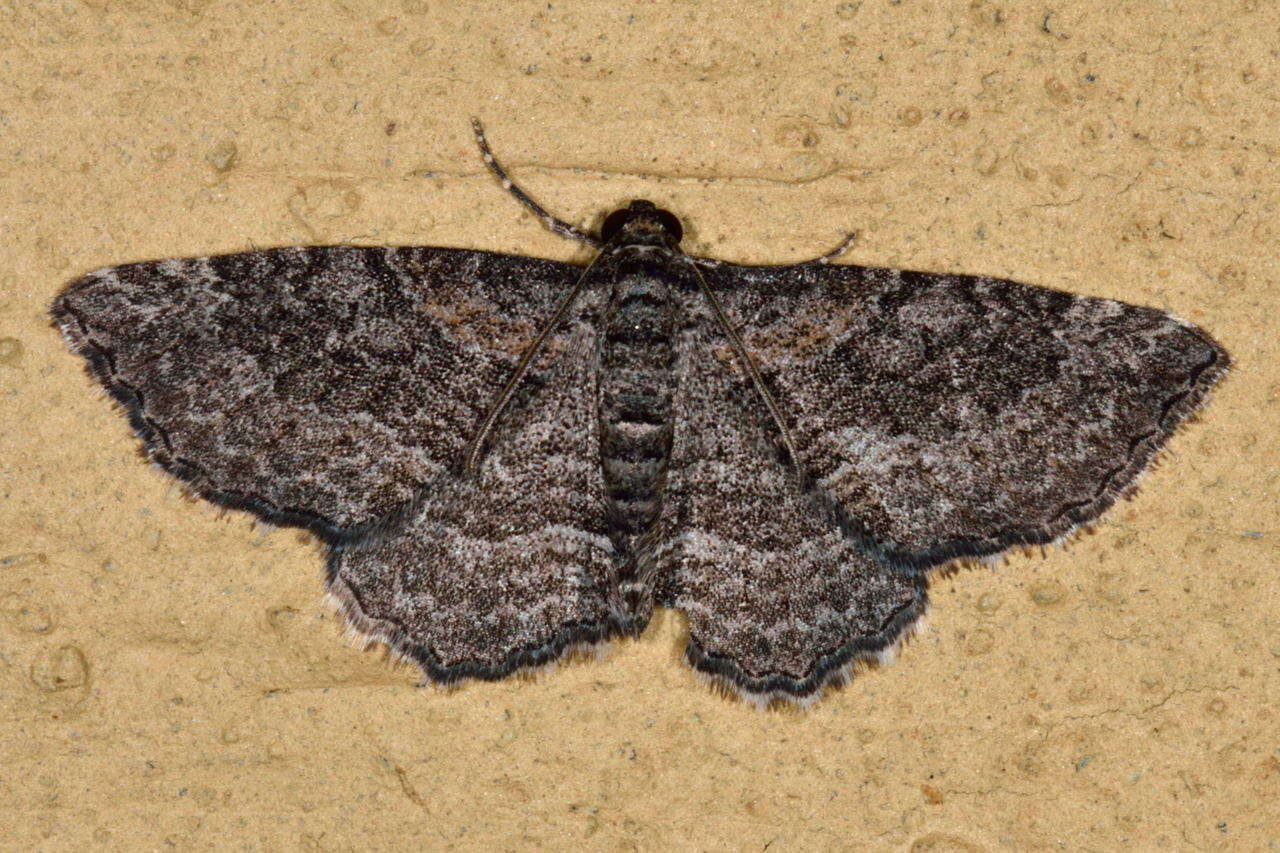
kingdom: Animalia
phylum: Arthropoda
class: Insecta
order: Lepidoptera
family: Geometridae
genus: Chrysolarentia
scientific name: Chrysolarentia squamulata
